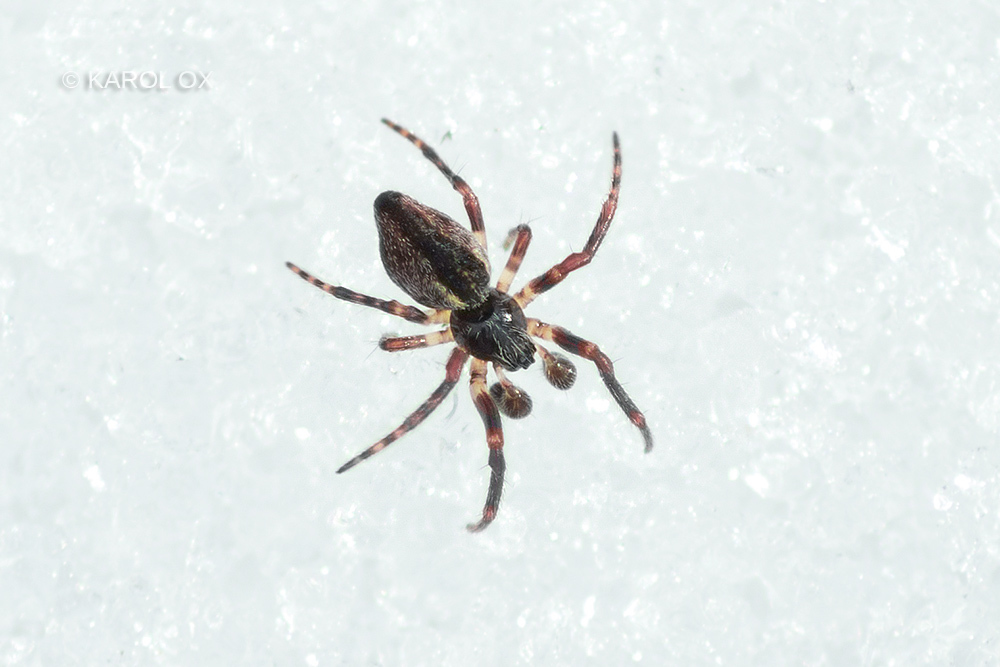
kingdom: Animalia
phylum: Arthropoda
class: Arachnida
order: Araneae
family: Araneidae
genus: Cyclosa
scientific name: Cyclosa conica
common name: Conical trashline orbweaver
